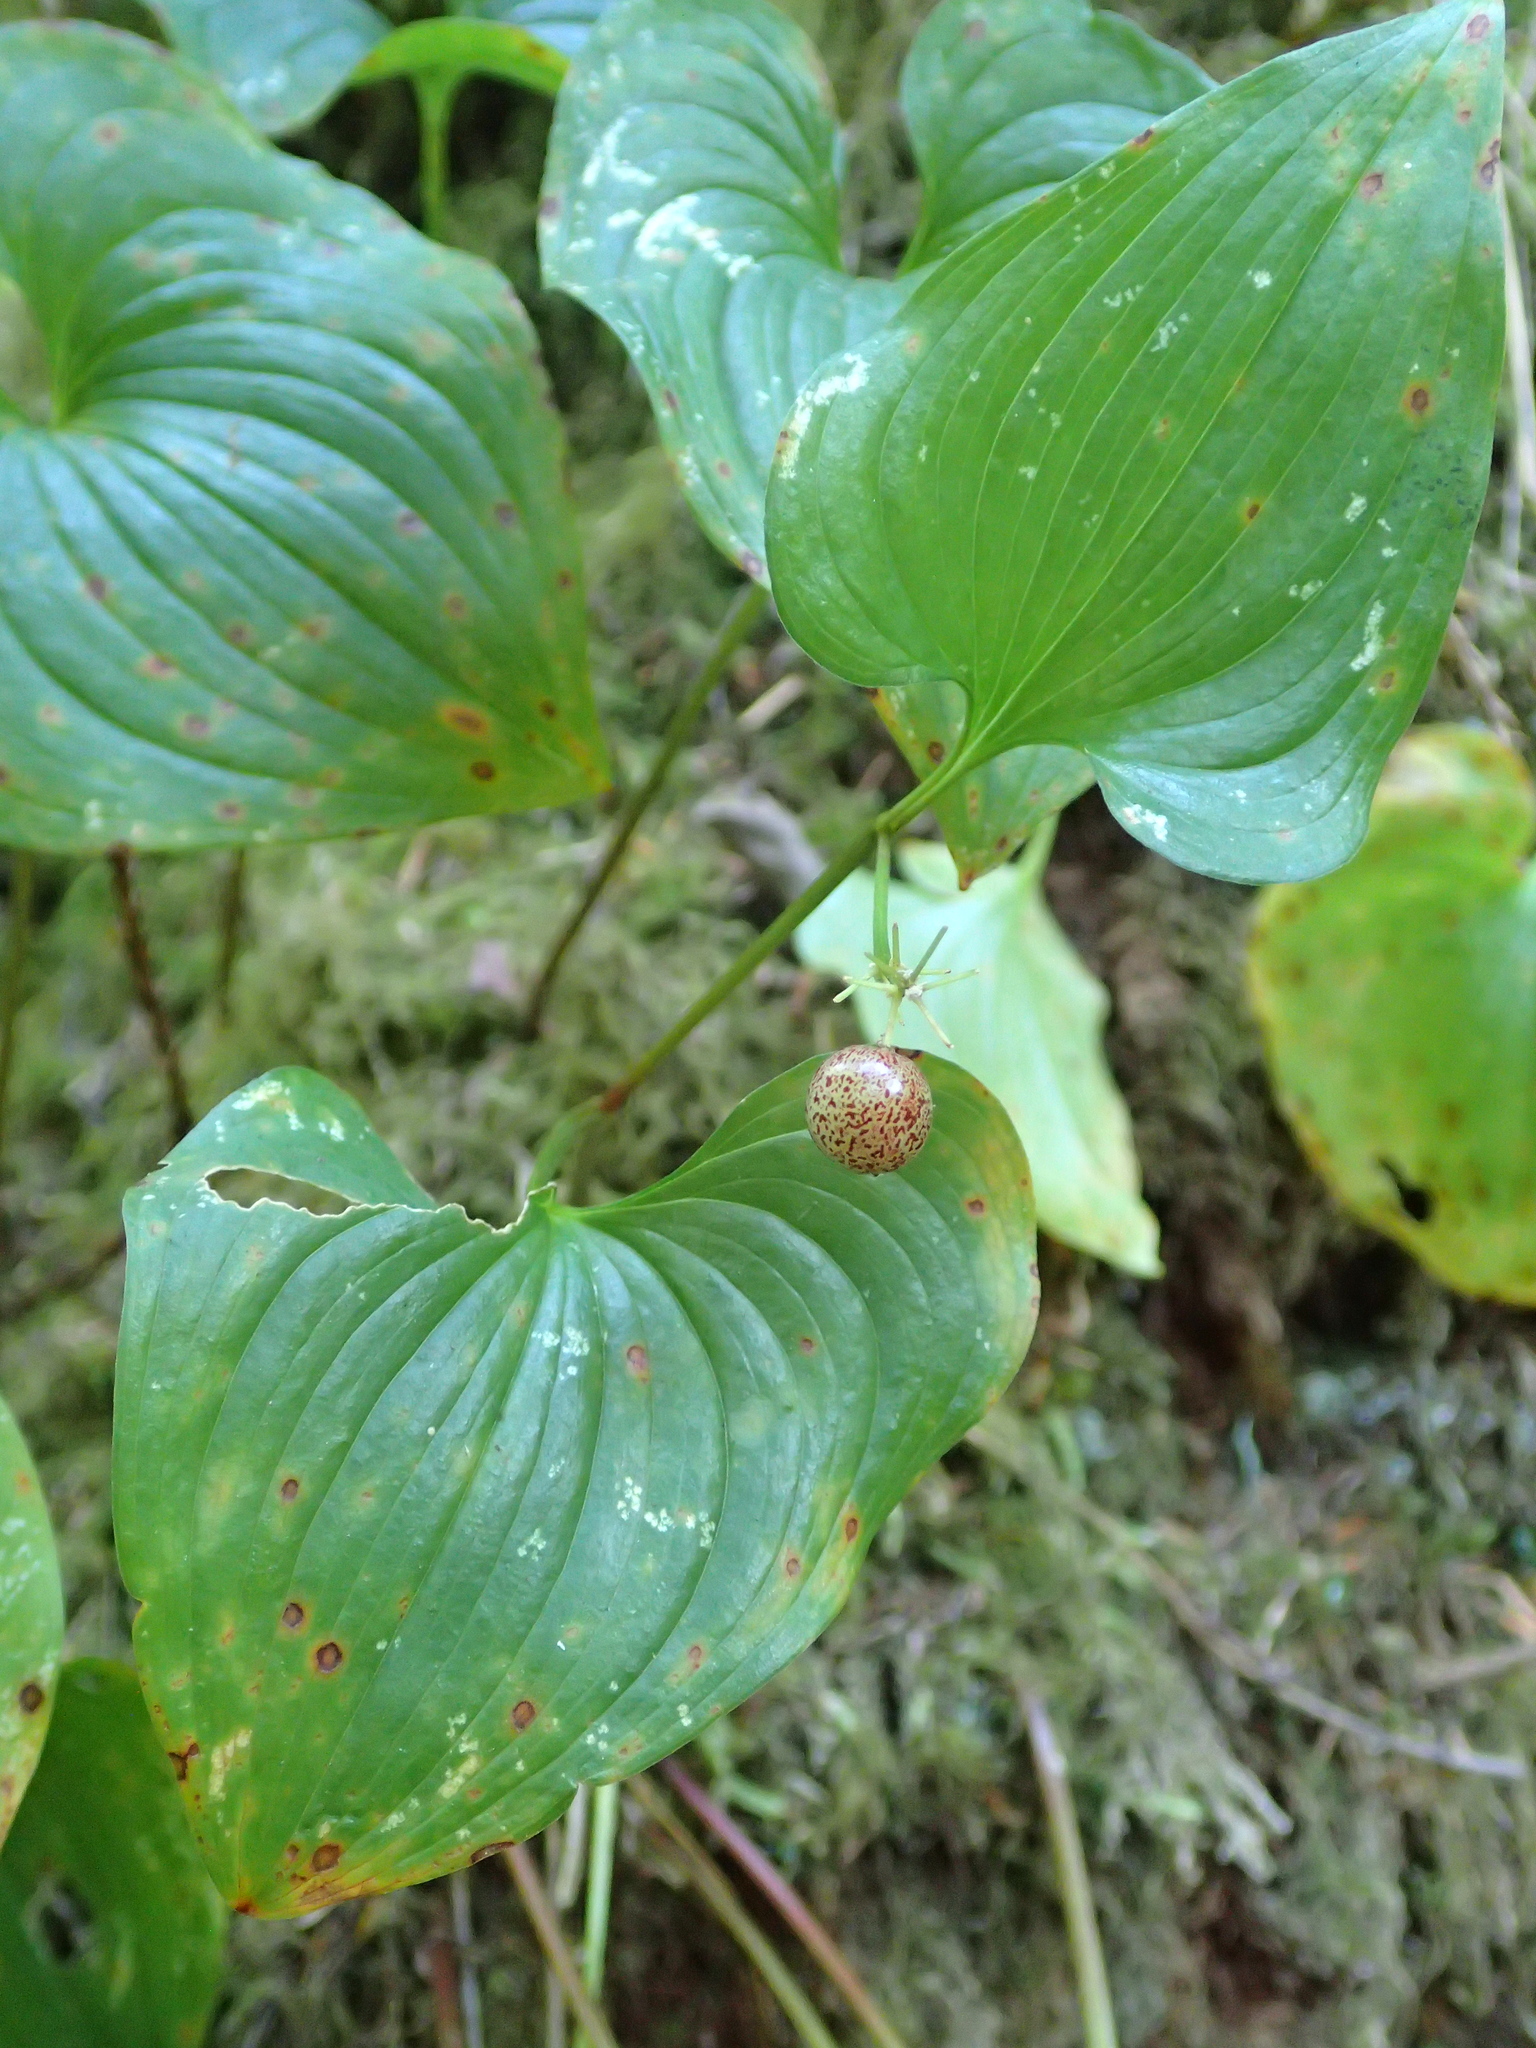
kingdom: Plantae
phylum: Tracheophyta
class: Liliopsida
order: Asparagales
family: Asparagaceae
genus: Maianthemum
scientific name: Maianthemum dilatatum
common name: False lily-of-the-valley
